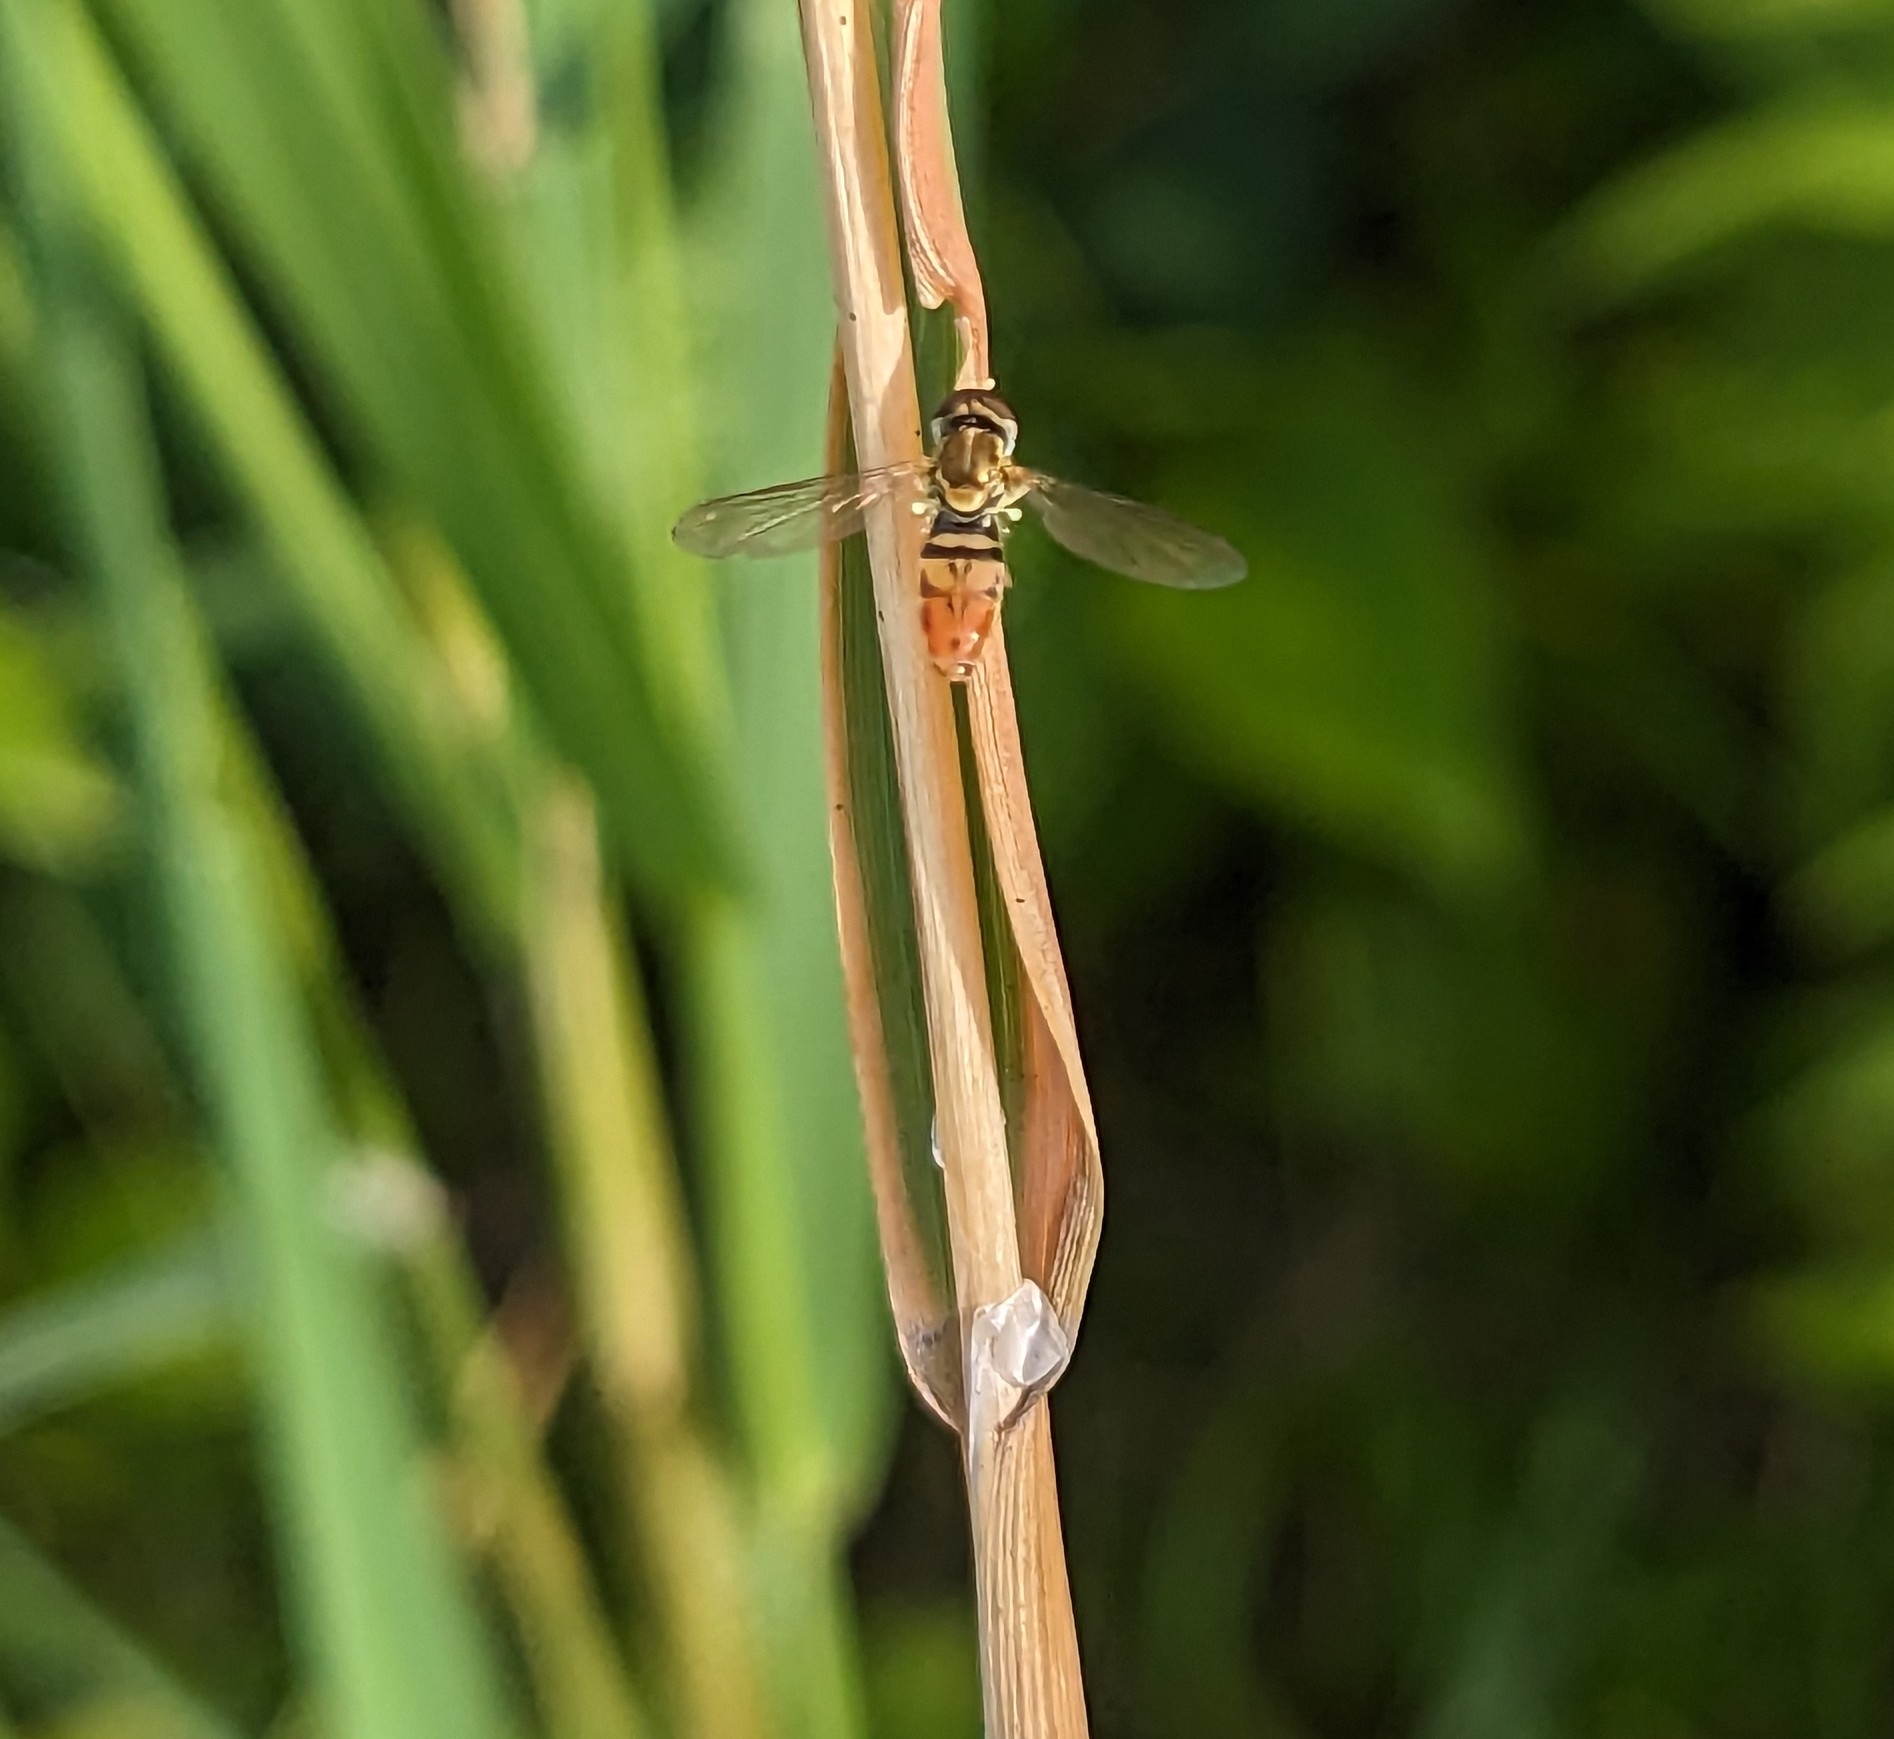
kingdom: Animalia
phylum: Arthropoda
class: Insecta
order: Diptera
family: Syrphidae
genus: Toxomerus
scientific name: Toxomerus marginatus
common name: Syrphid fly
